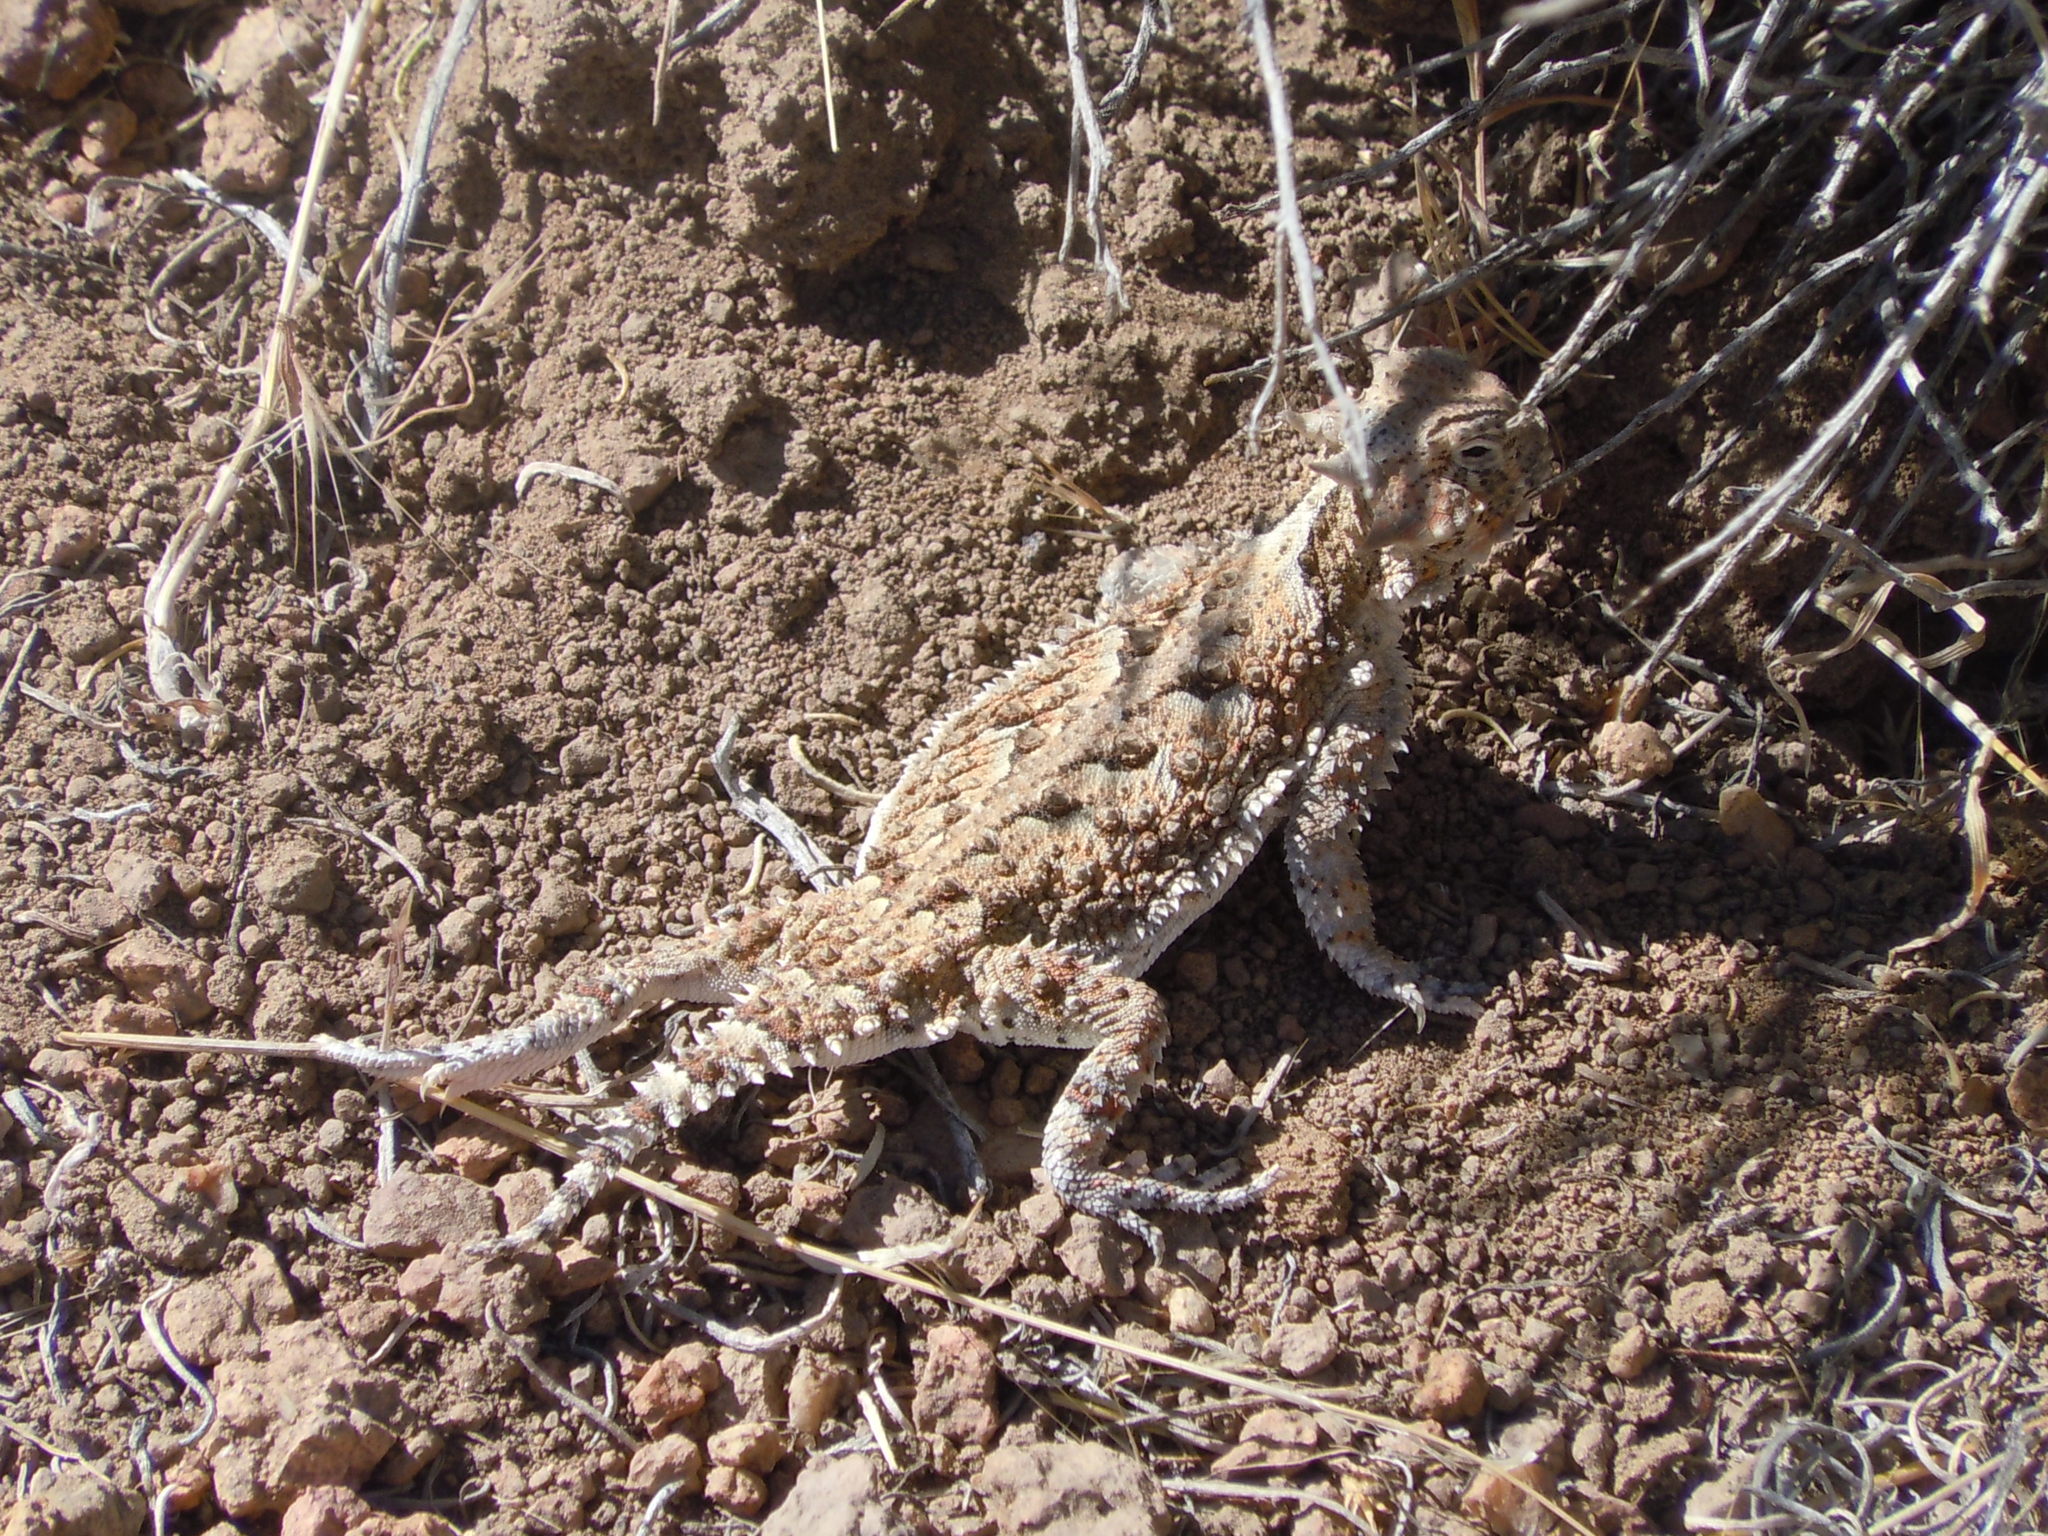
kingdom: Animalia
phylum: Chordata
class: Squamata
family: Phrynosomatidae
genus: Phrynosoma
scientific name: Phrynosoma platyrhinos
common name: Desert horned lizard
